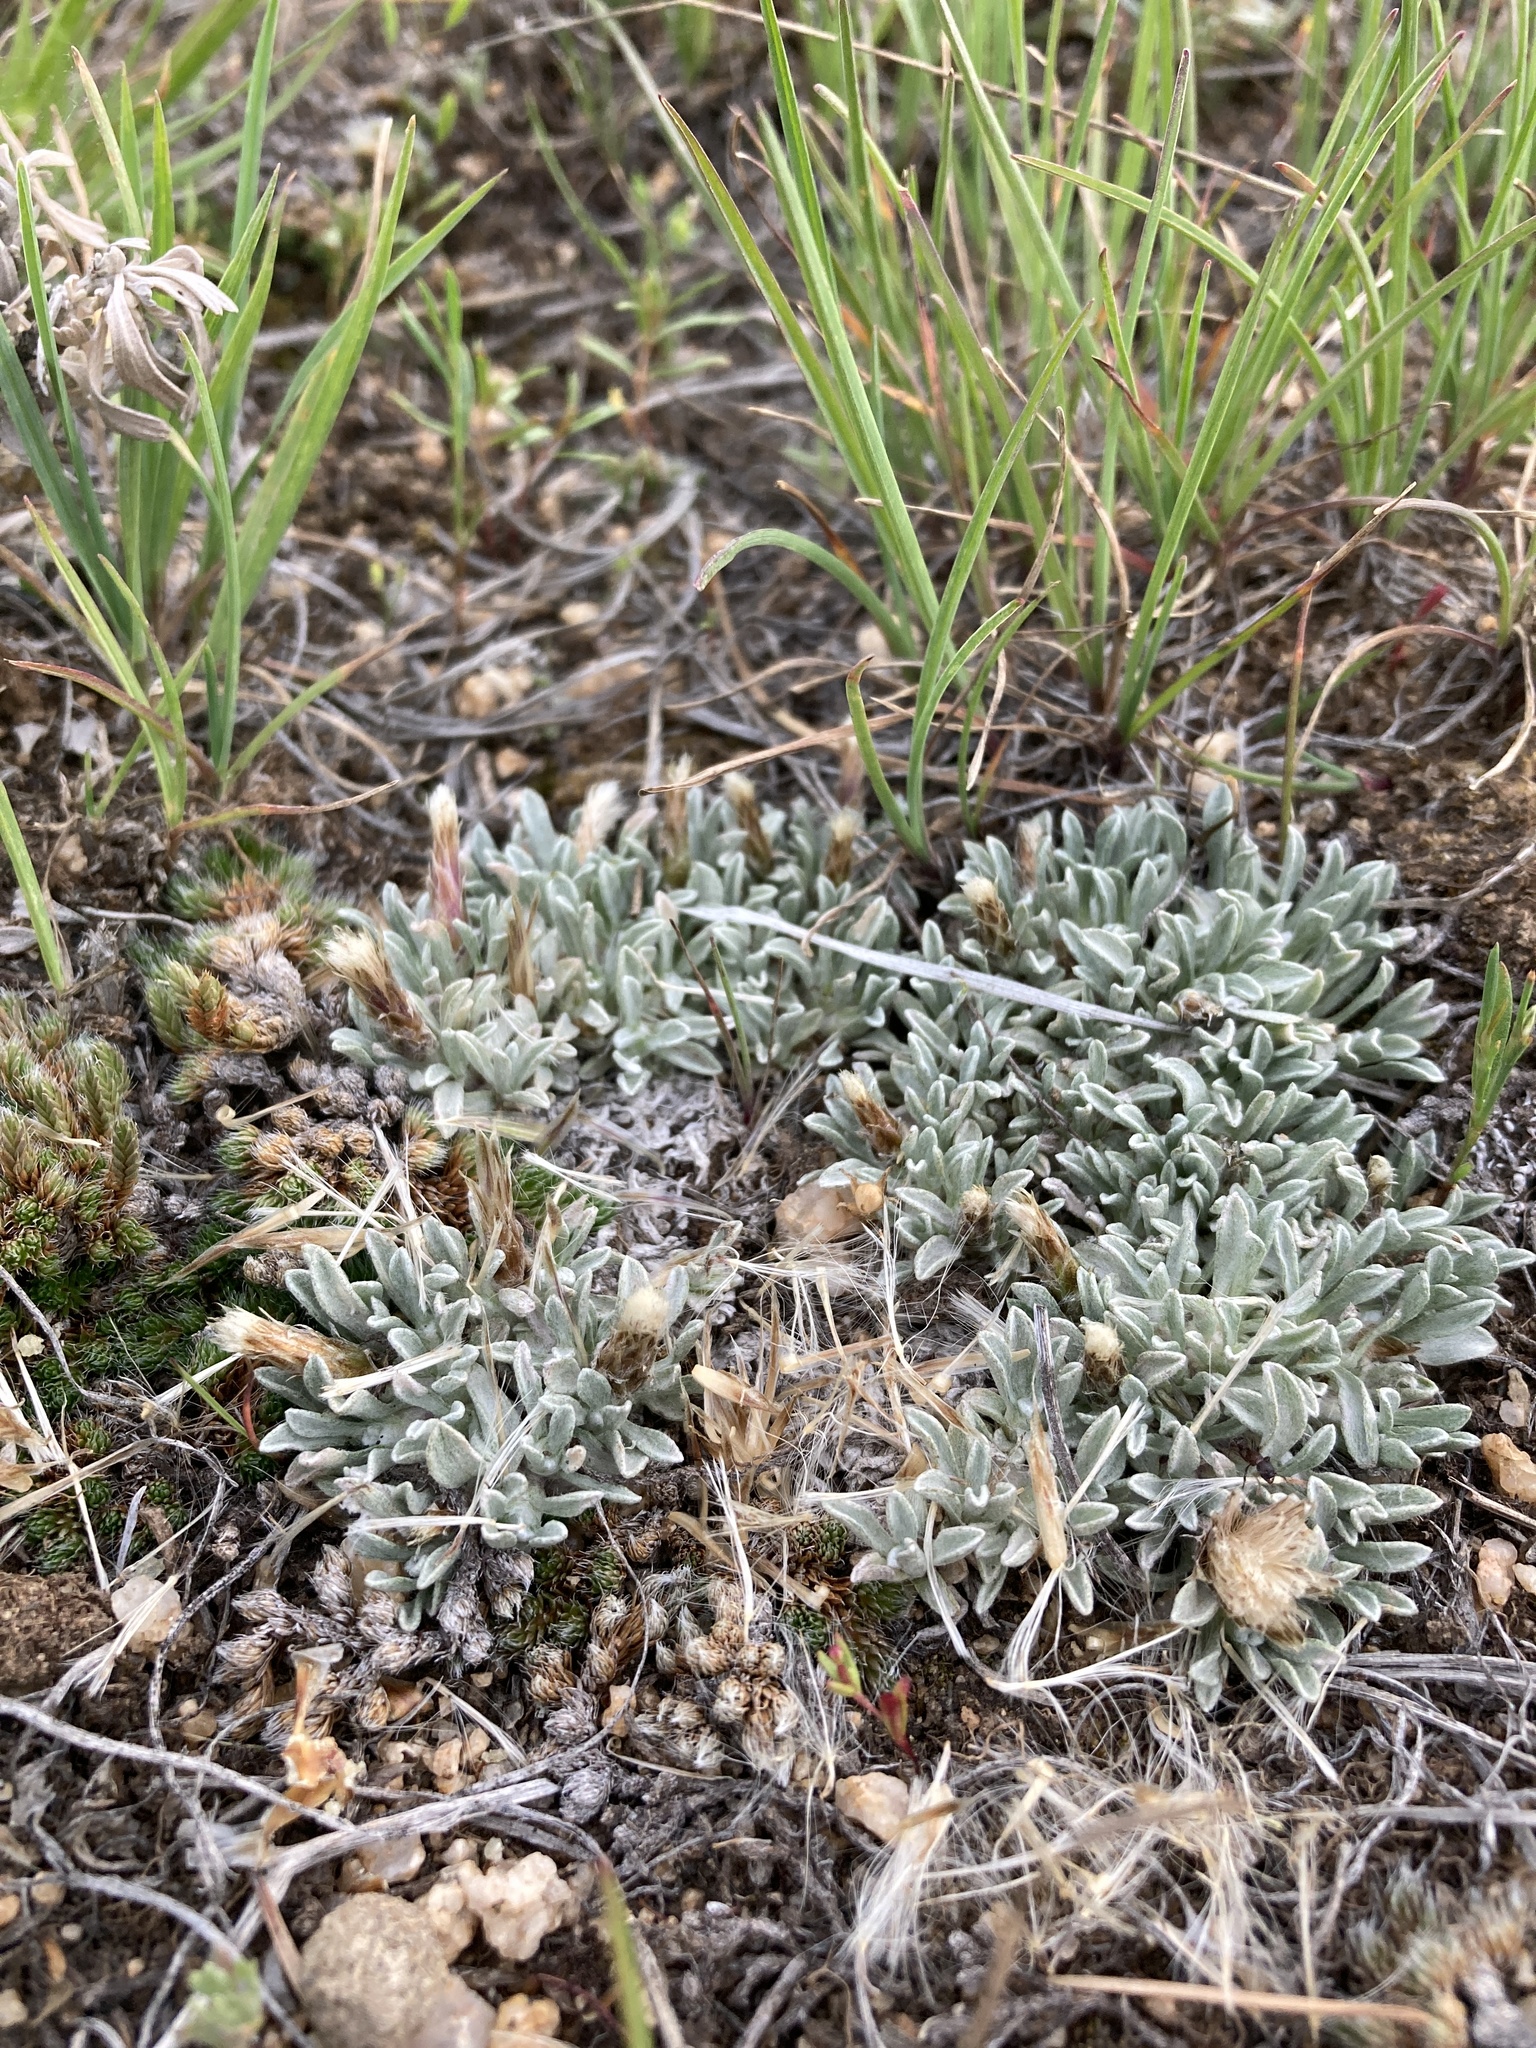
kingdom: Plantae
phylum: Tracheophyta
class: Magnoliopsida
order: Asterales
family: Asteraceae
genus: Antennaria
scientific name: Antennaria dimorpha
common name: Cushion pussytoes
